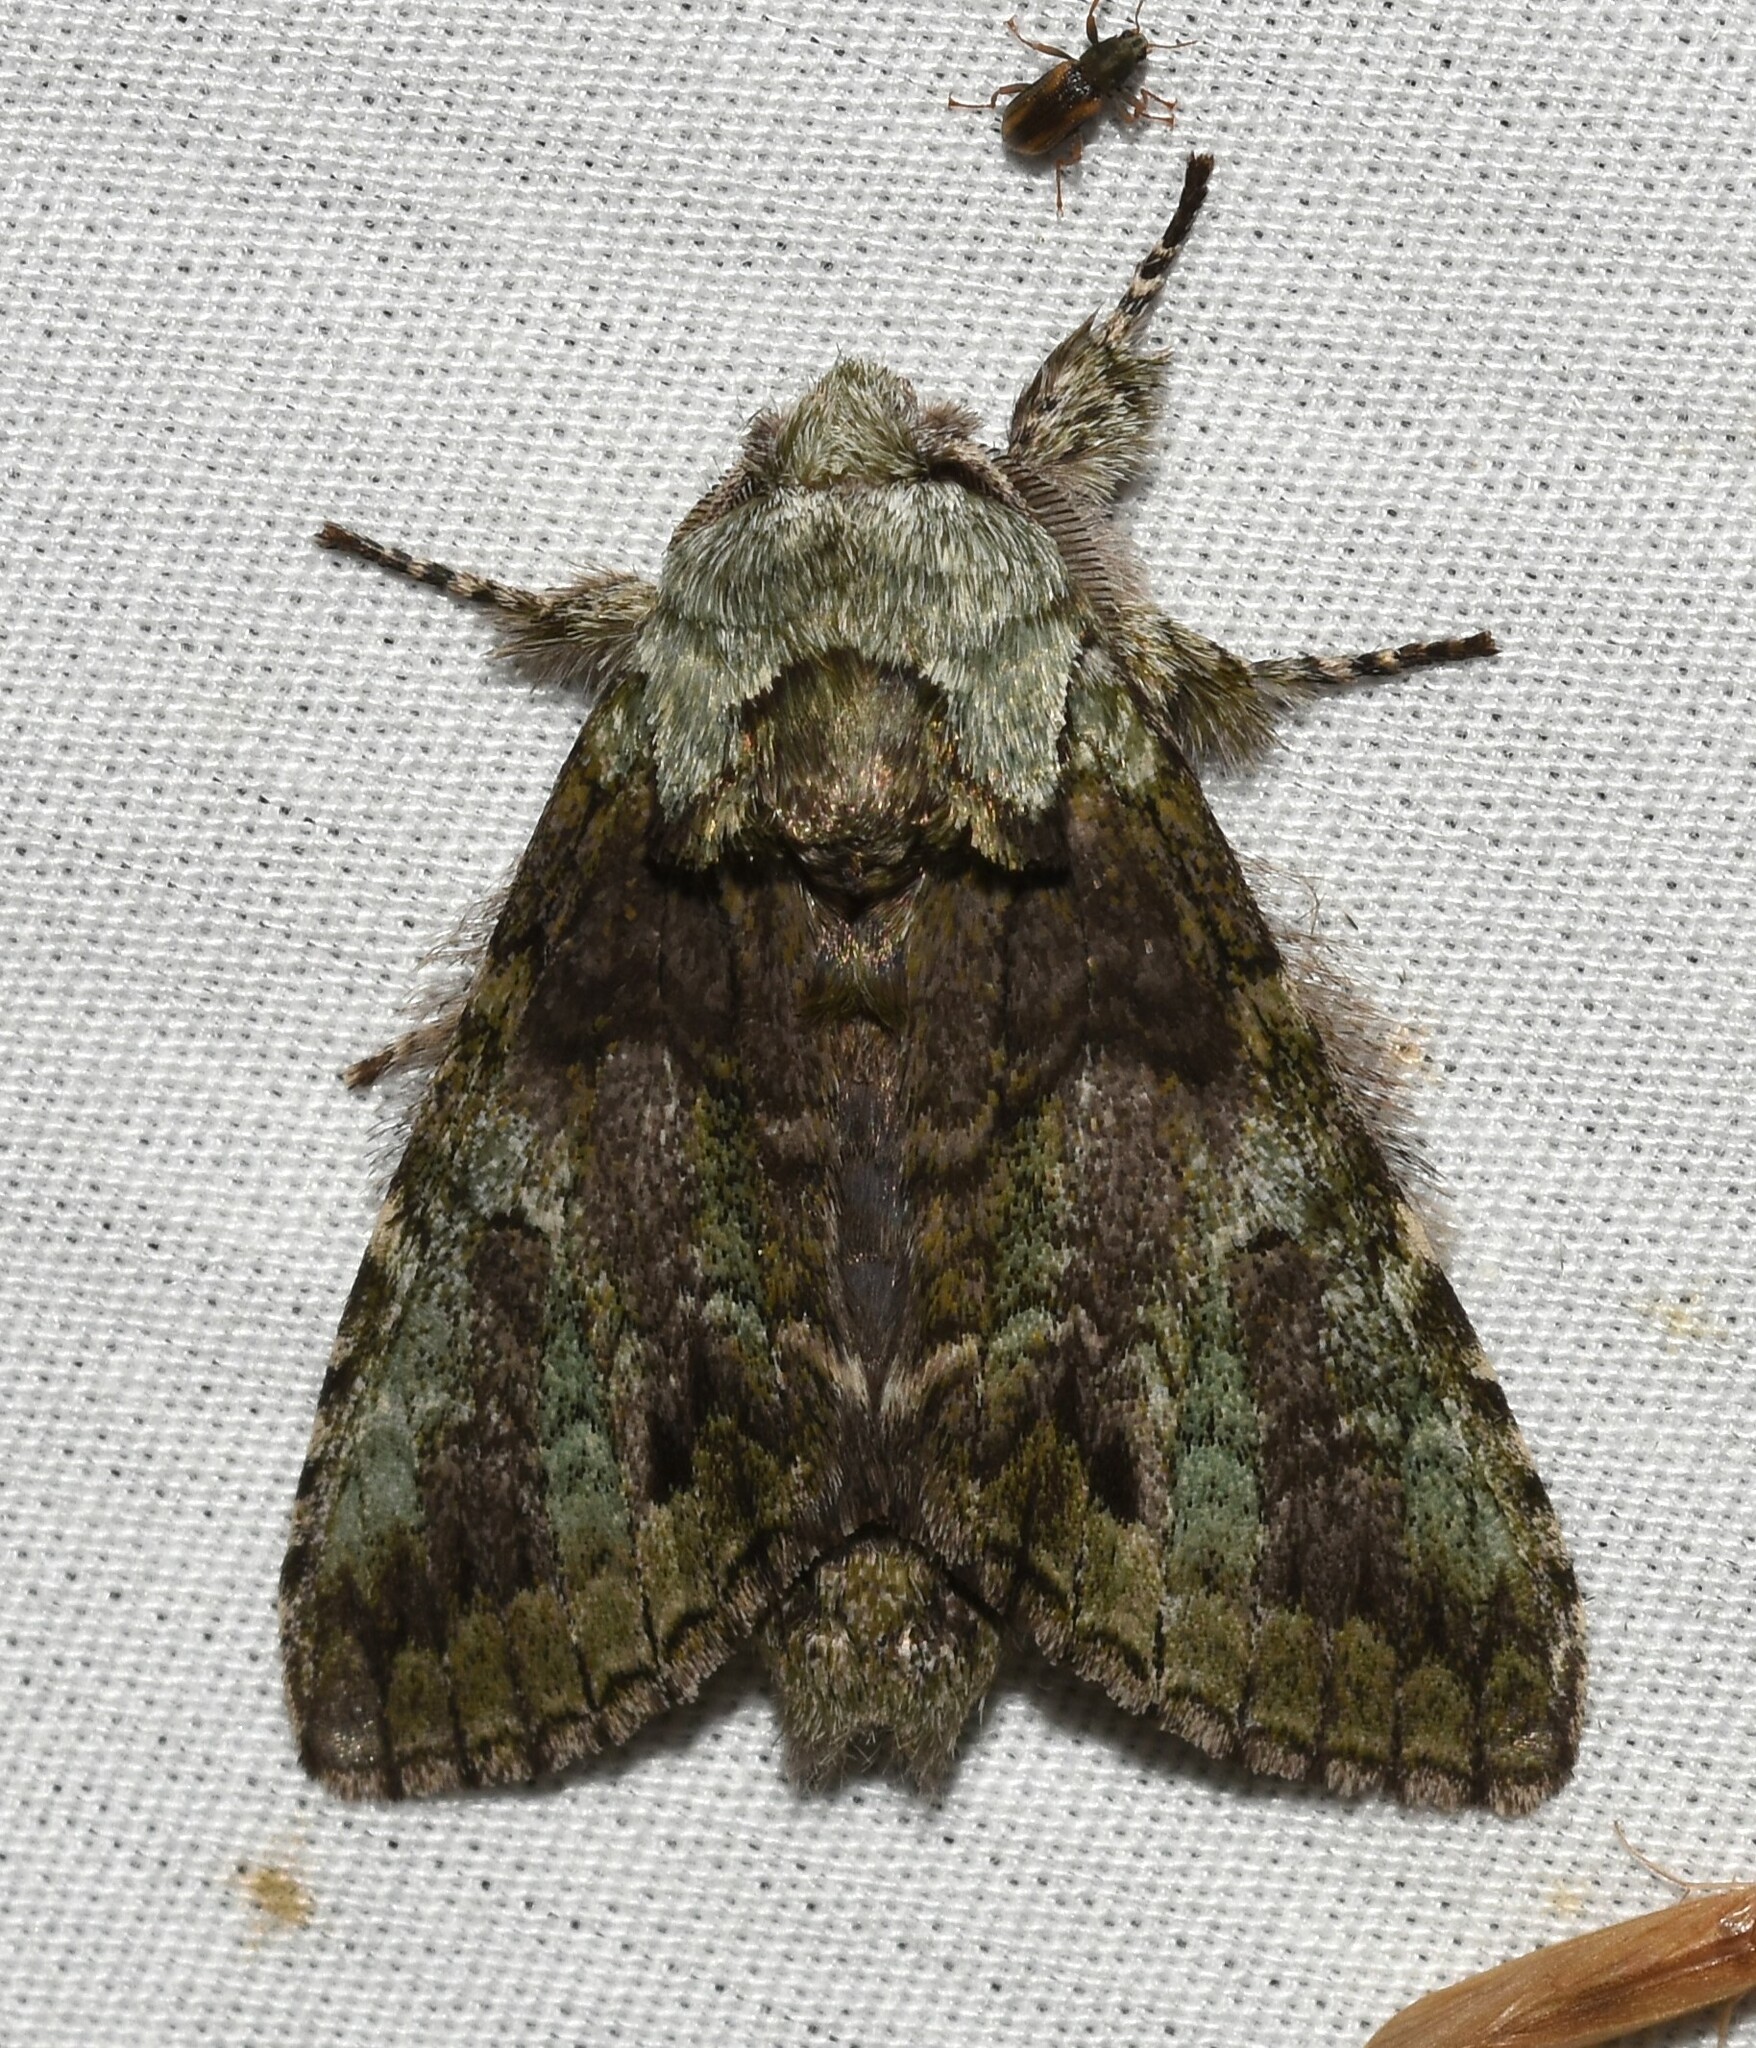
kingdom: Animalia
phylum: Arthropoda
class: Insecta
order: Lepidoptera
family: Notodontidae
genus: Macrurocampa
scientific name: Macrurocampa marthesia
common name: Mottled prominent
